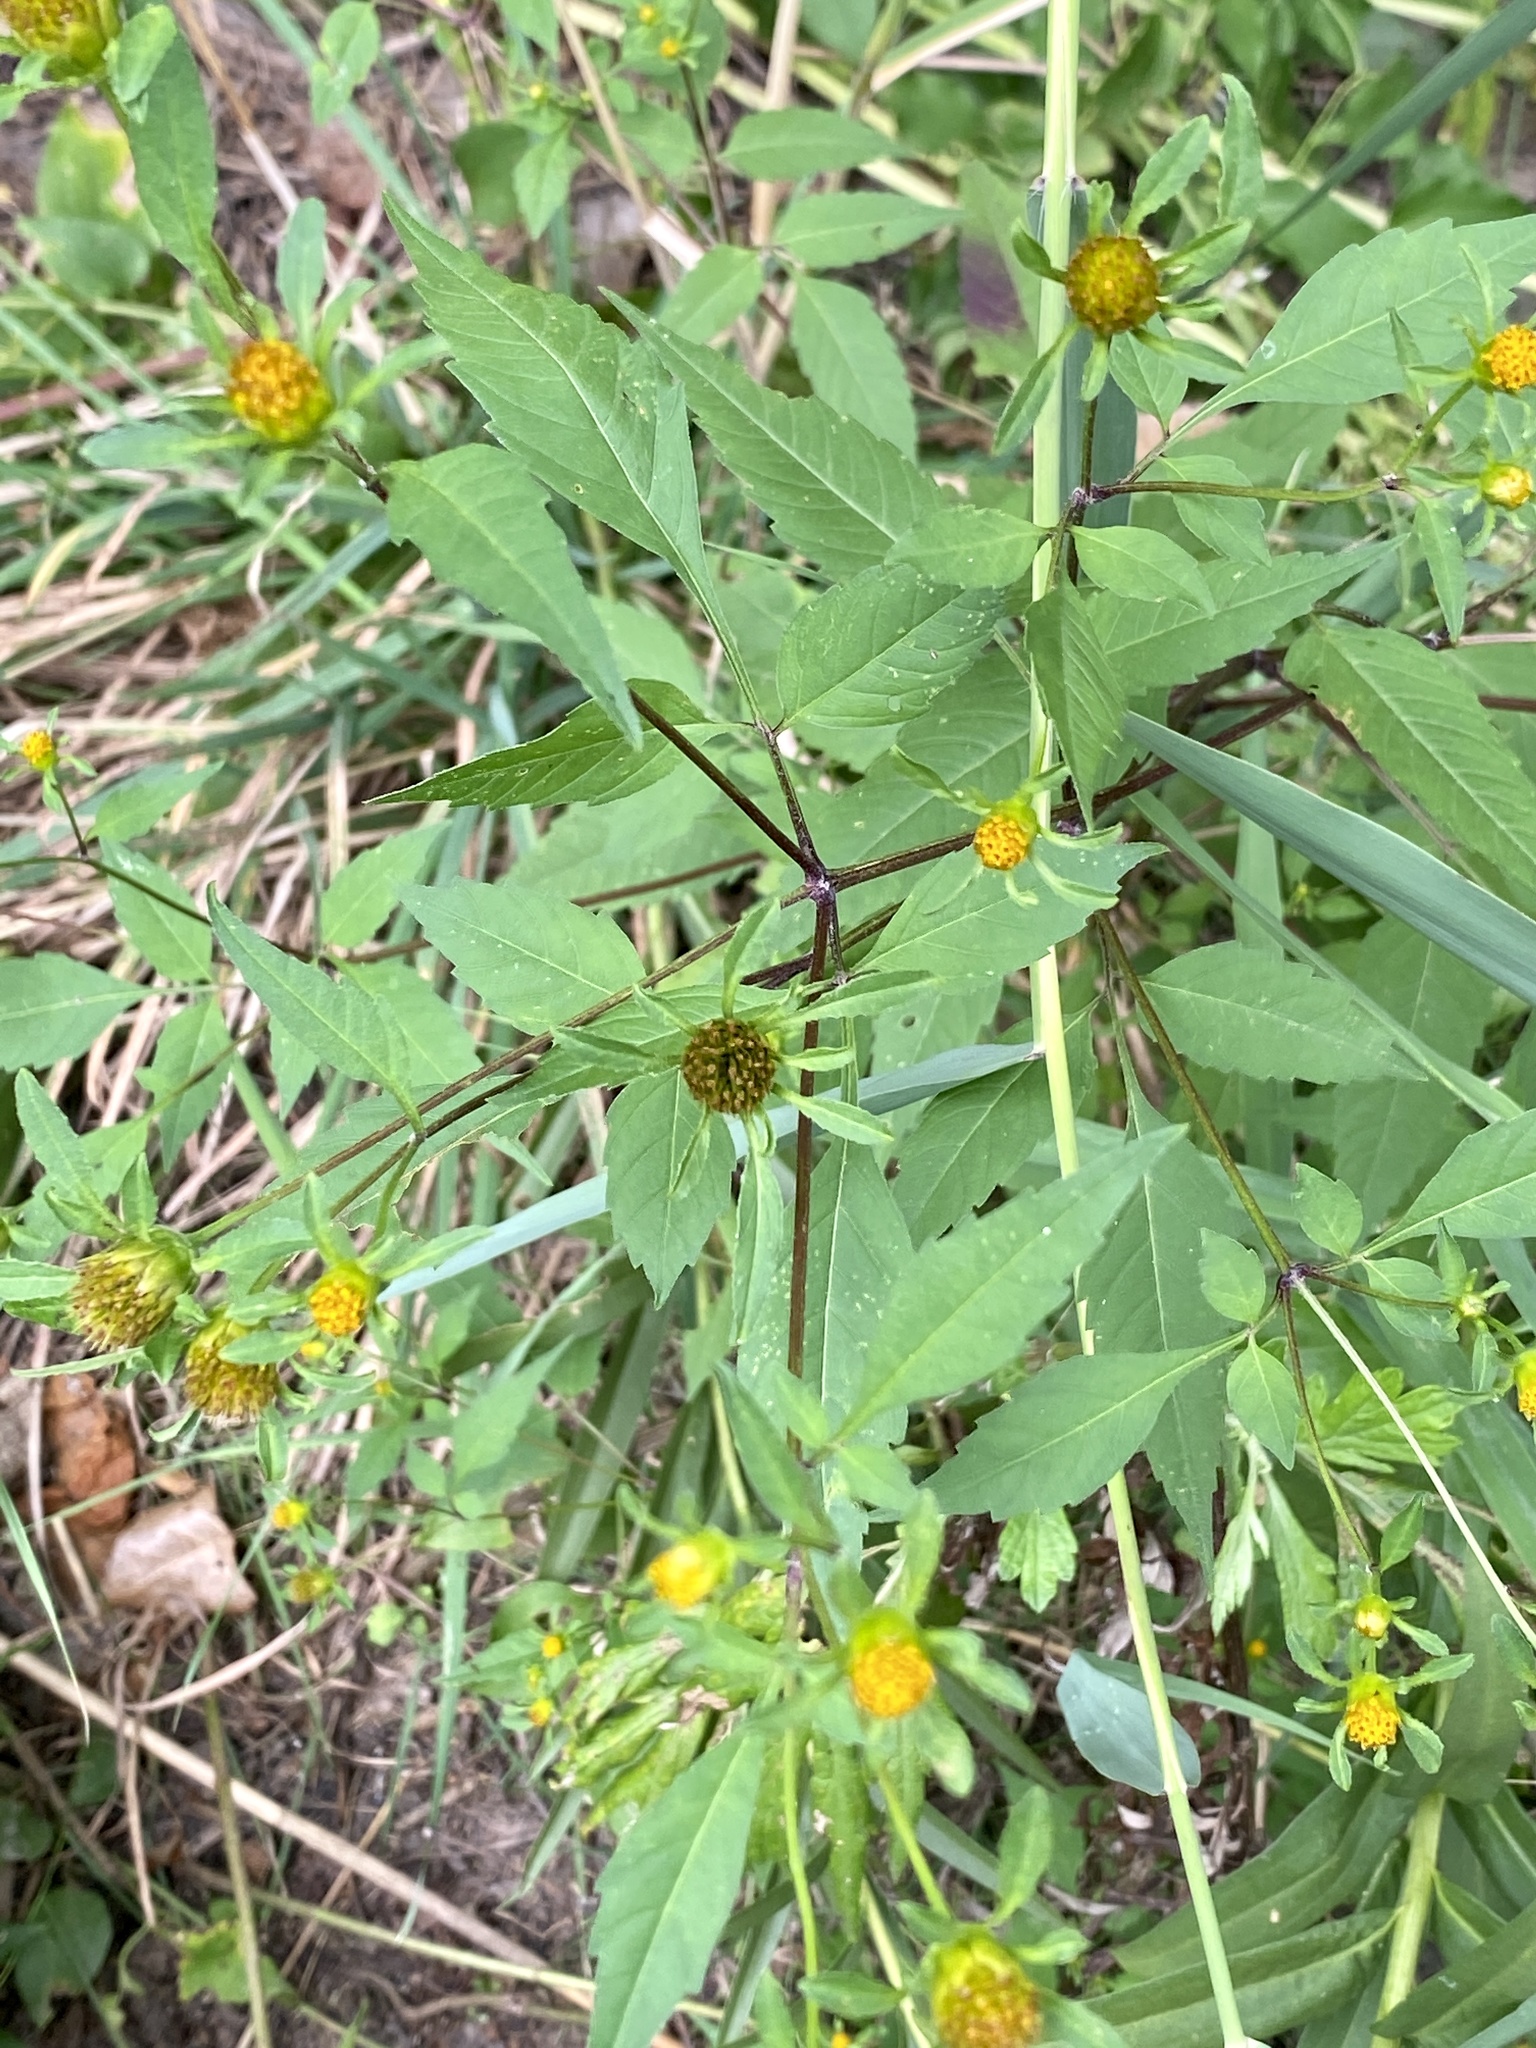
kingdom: Plantae
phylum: Tracheophyta
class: Magnoliopsida
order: Asterales
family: Asteraceae
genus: Bidens
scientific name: Bidens frondosa
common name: Beggarticks
